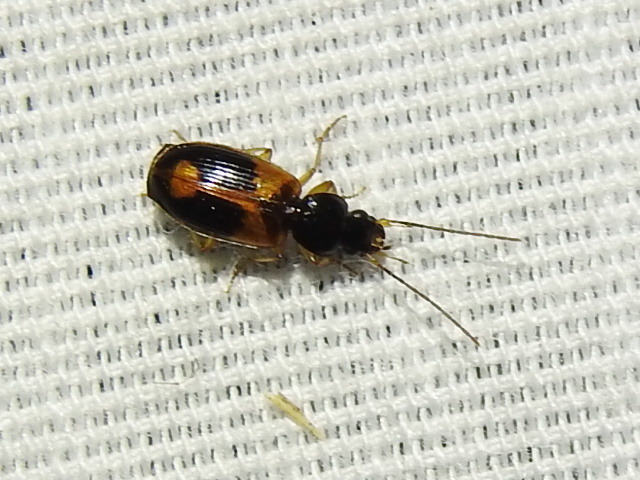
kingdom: Animalia
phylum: Arthropoda
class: Insecta
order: Coleoptera
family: Carabidae
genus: Badister
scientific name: Badister elegans
